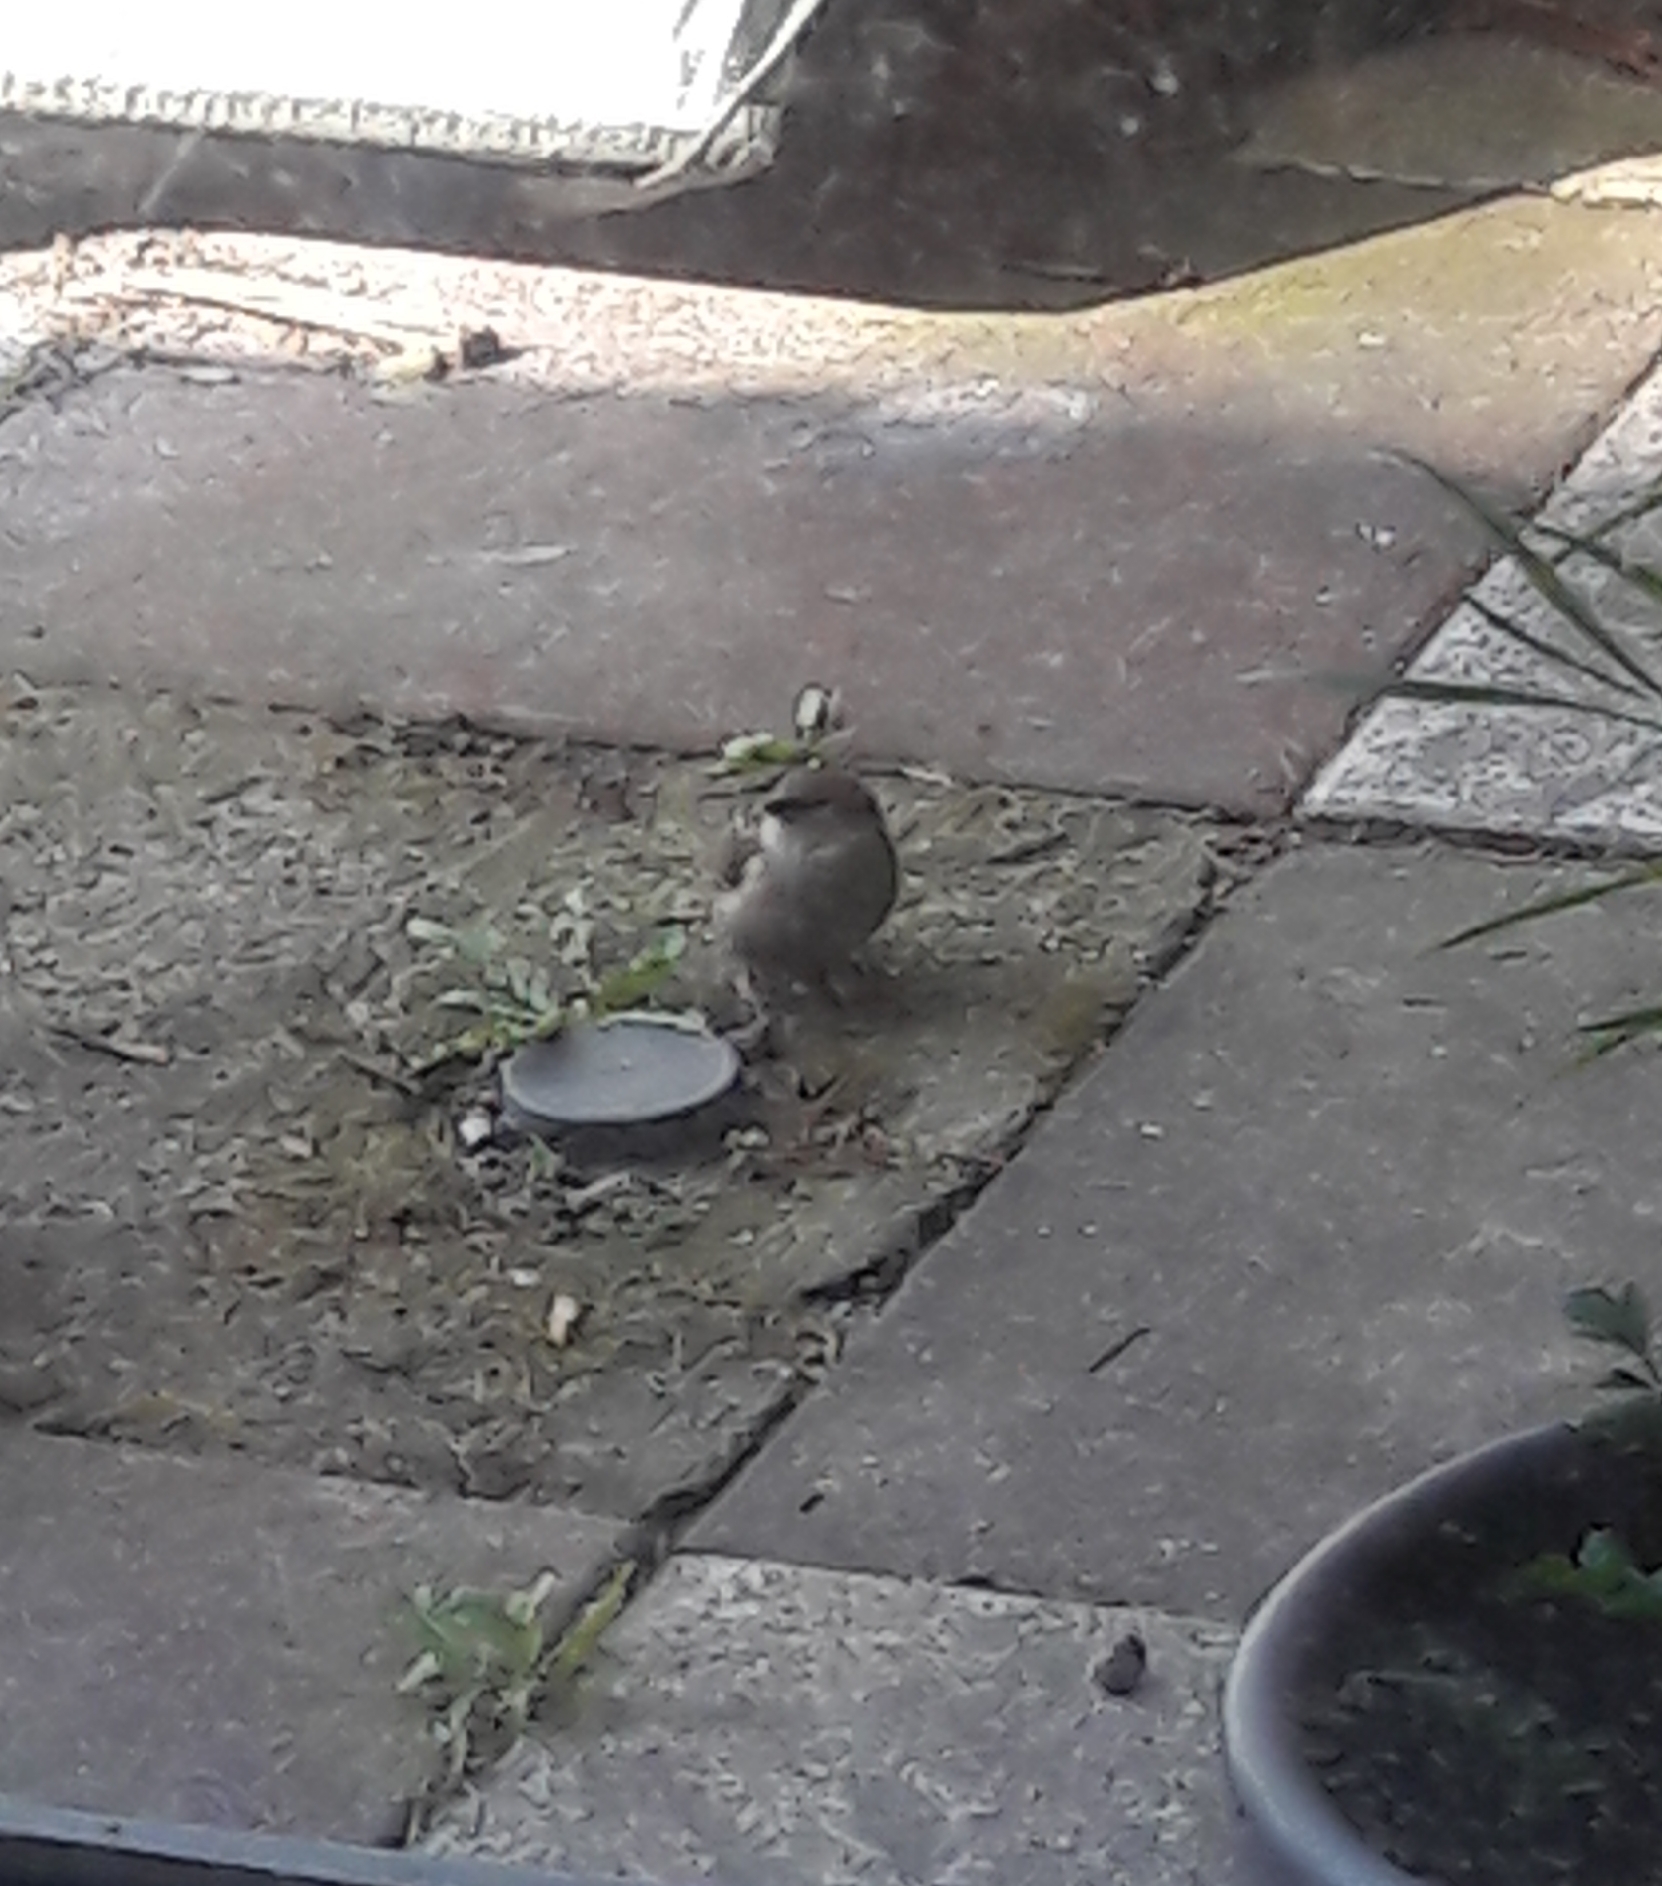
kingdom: Animalia
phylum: Chordata
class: Aves
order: Passeriformes
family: Passeridae
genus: Passer
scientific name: Passer domesticus
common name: House sparrow
